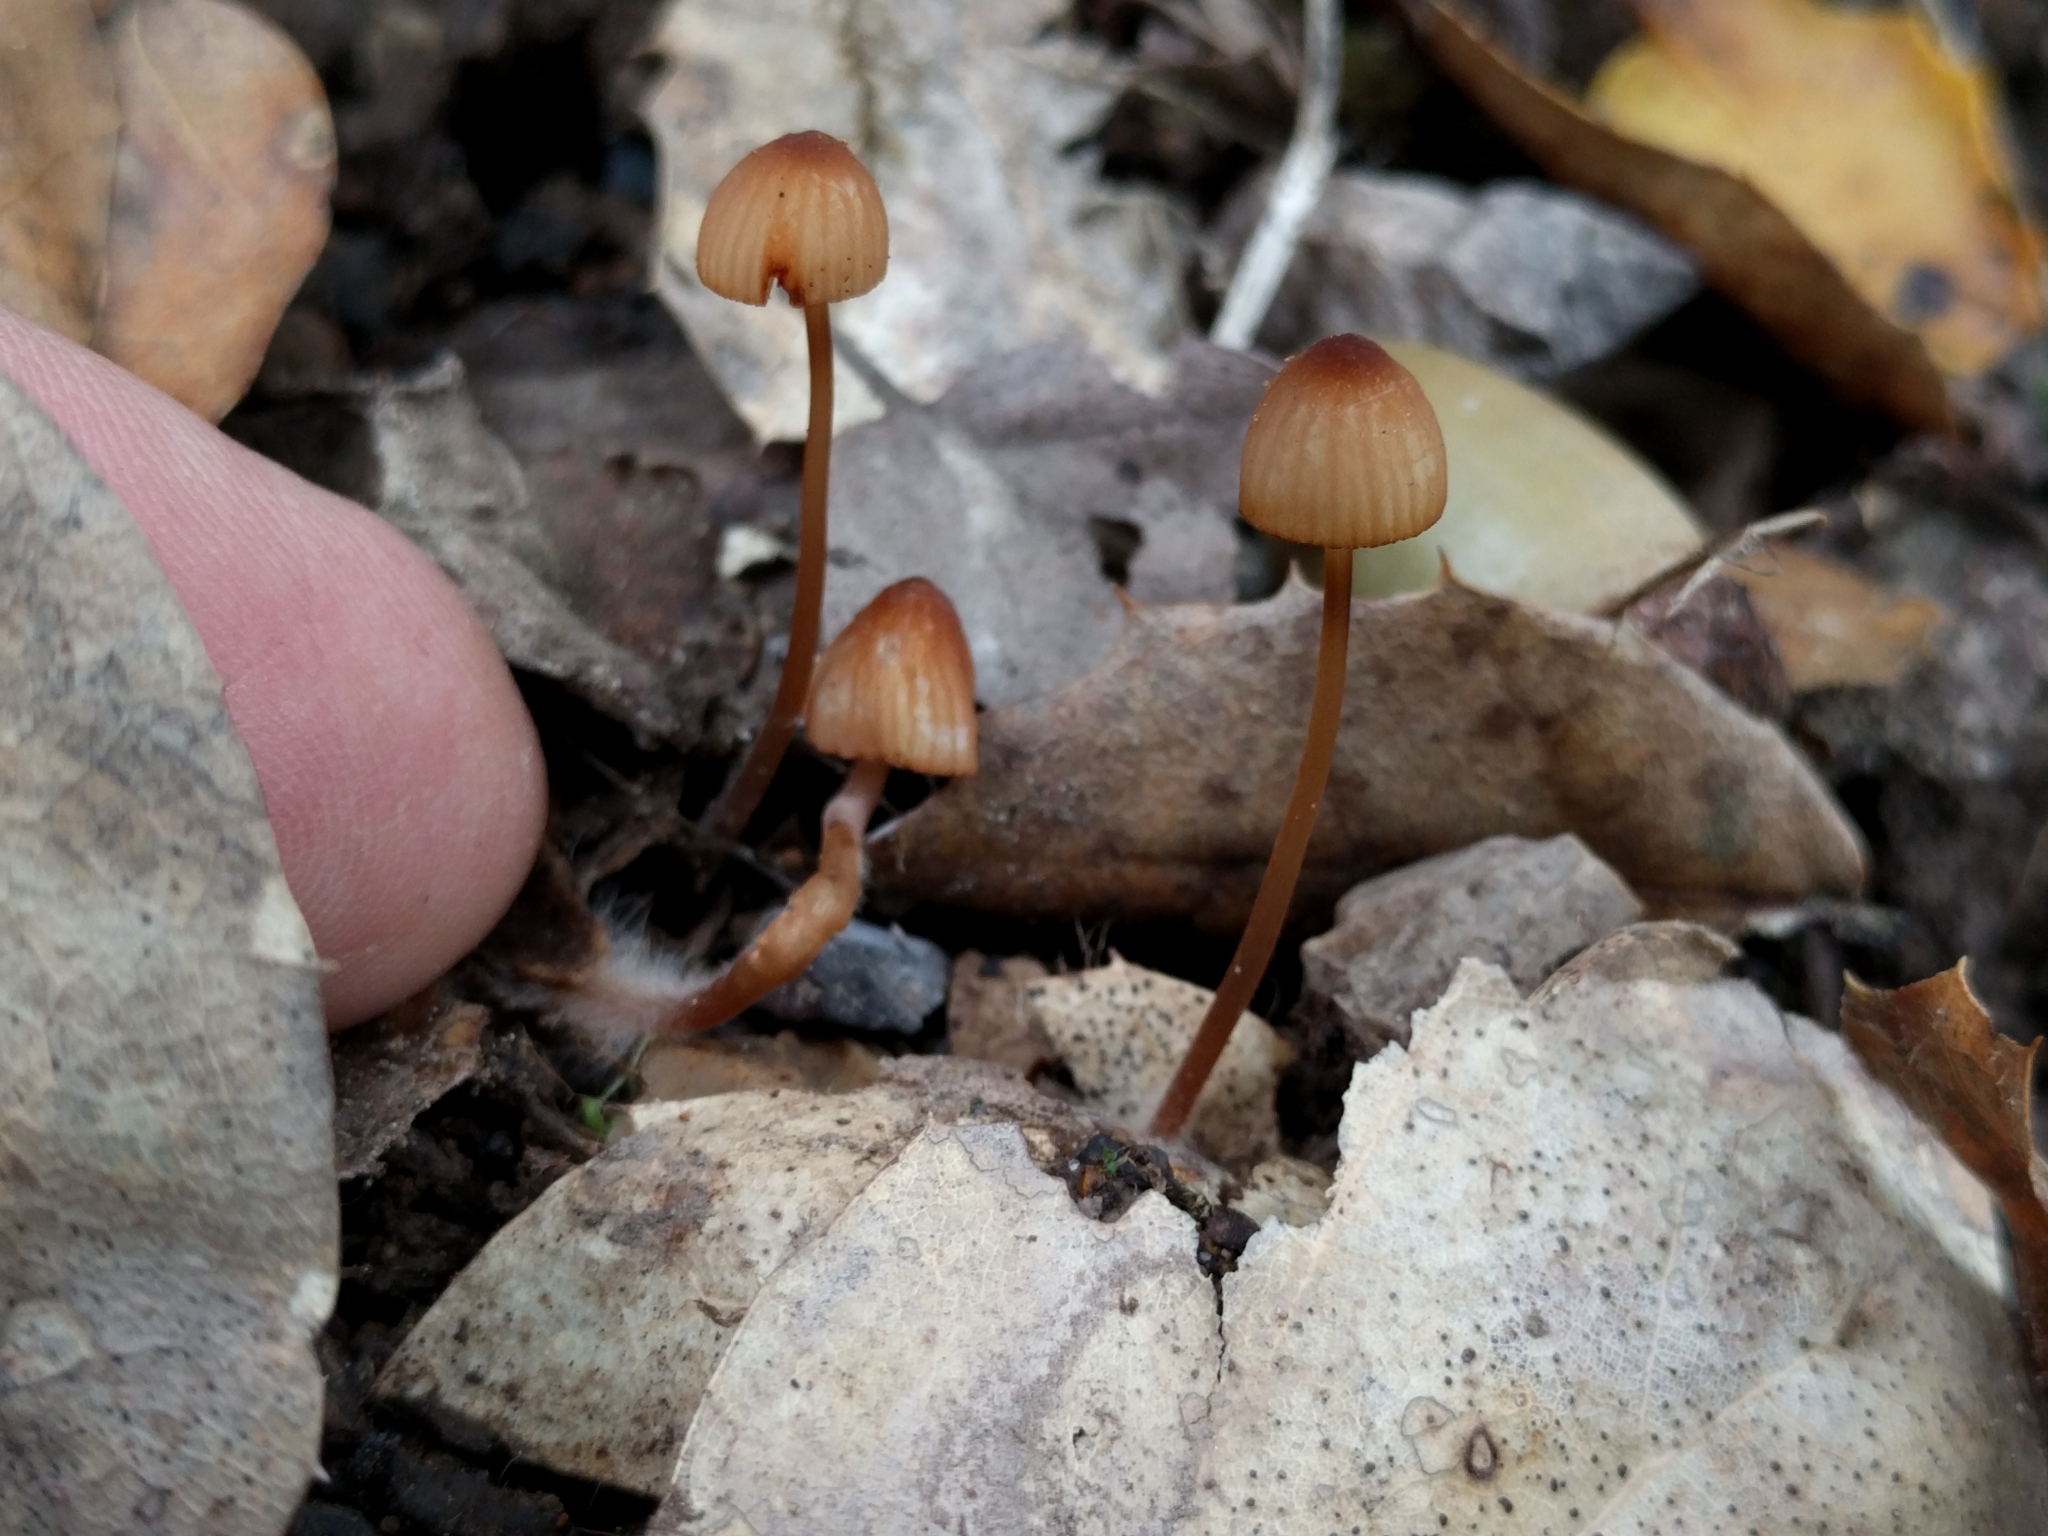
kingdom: Fungi
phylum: Basidiomycota
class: Agaricomycetes
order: Agaricales
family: Mycenaceae
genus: Mycena
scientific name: Mycena
